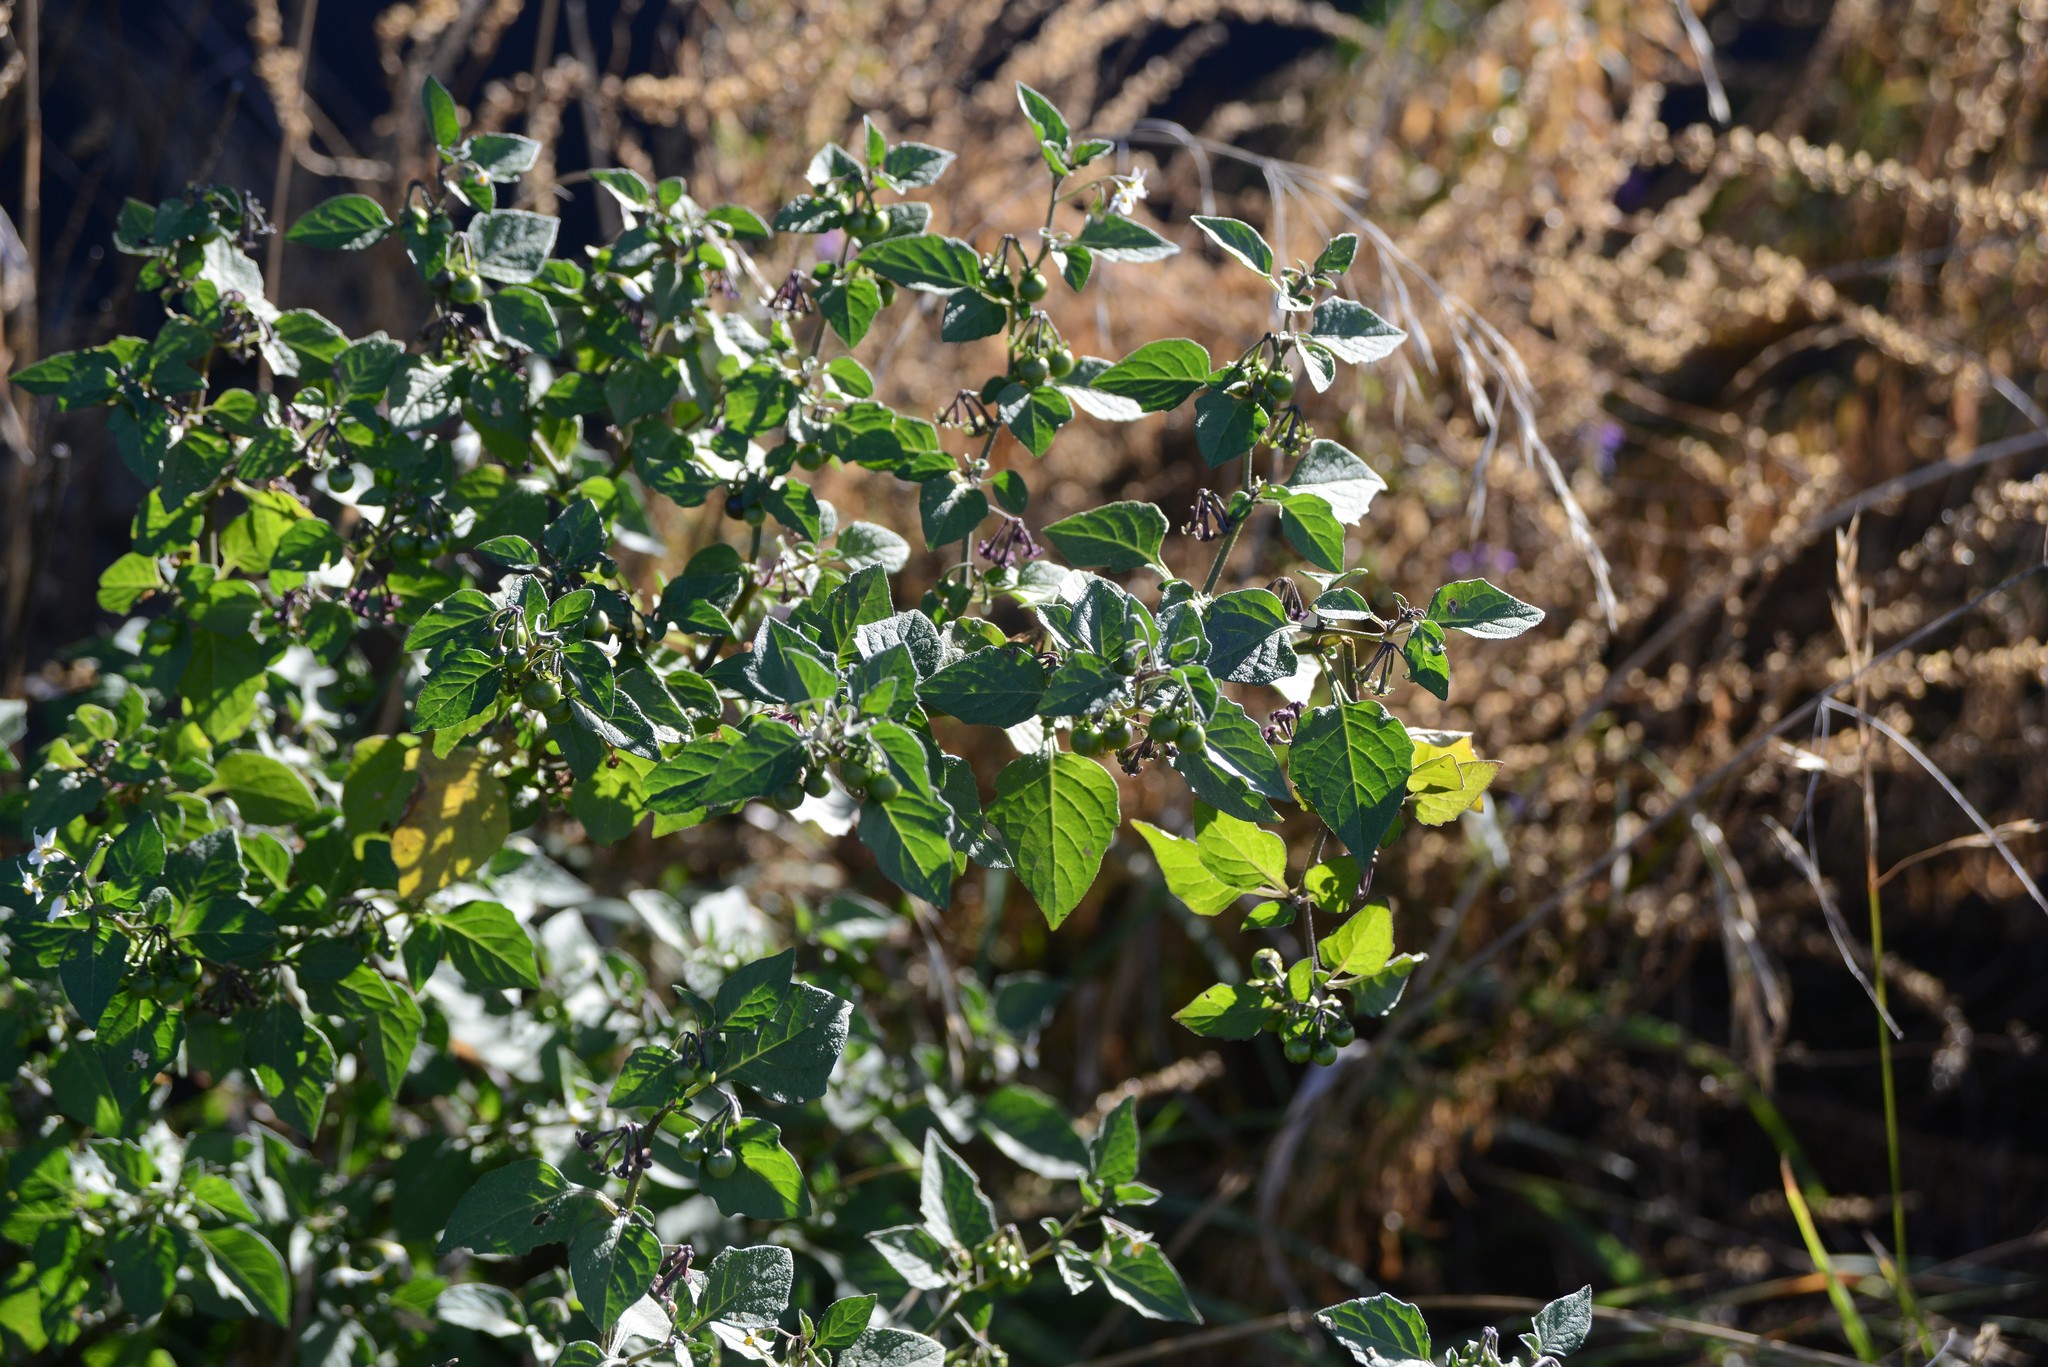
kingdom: Plantae
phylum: Tracheophyta
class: Magnoliopsida
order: Solanales
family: Solanaceae
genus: Solanum
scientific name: Solanum nigrum
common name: Black nightshade
